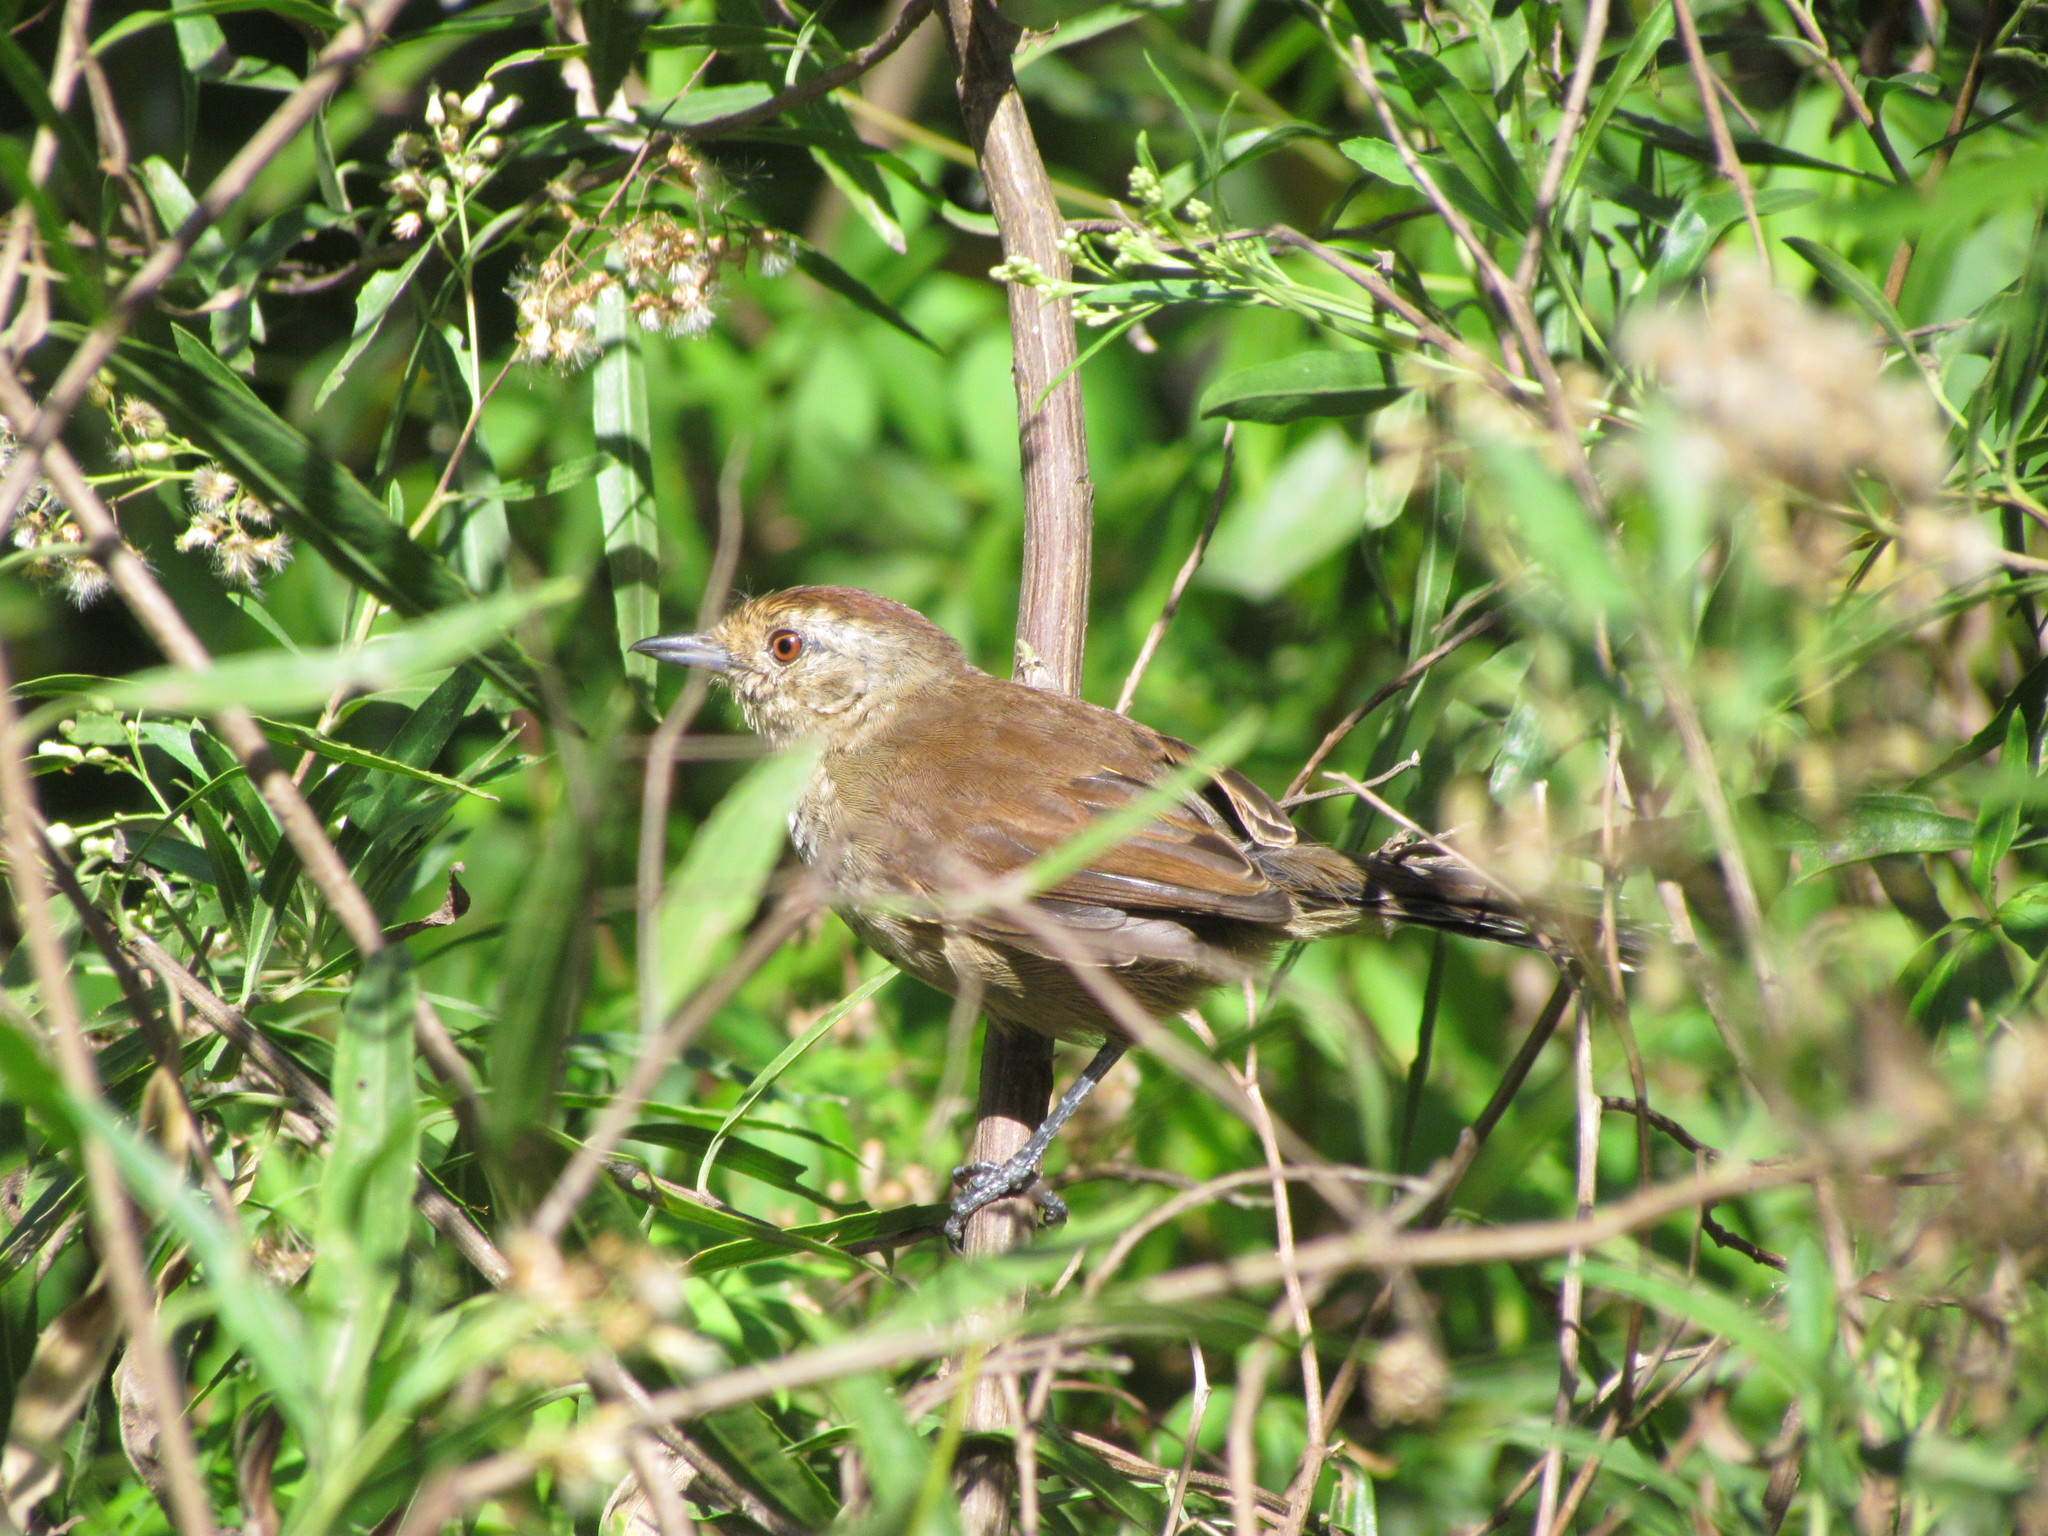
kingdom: Animalia
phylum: Chordata
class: Aves
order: Passeriformes
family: Thamnophilidae
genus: Thamnophilus
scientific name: Thamnophilus ruficapillus
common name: Rufous-capped antshrike
